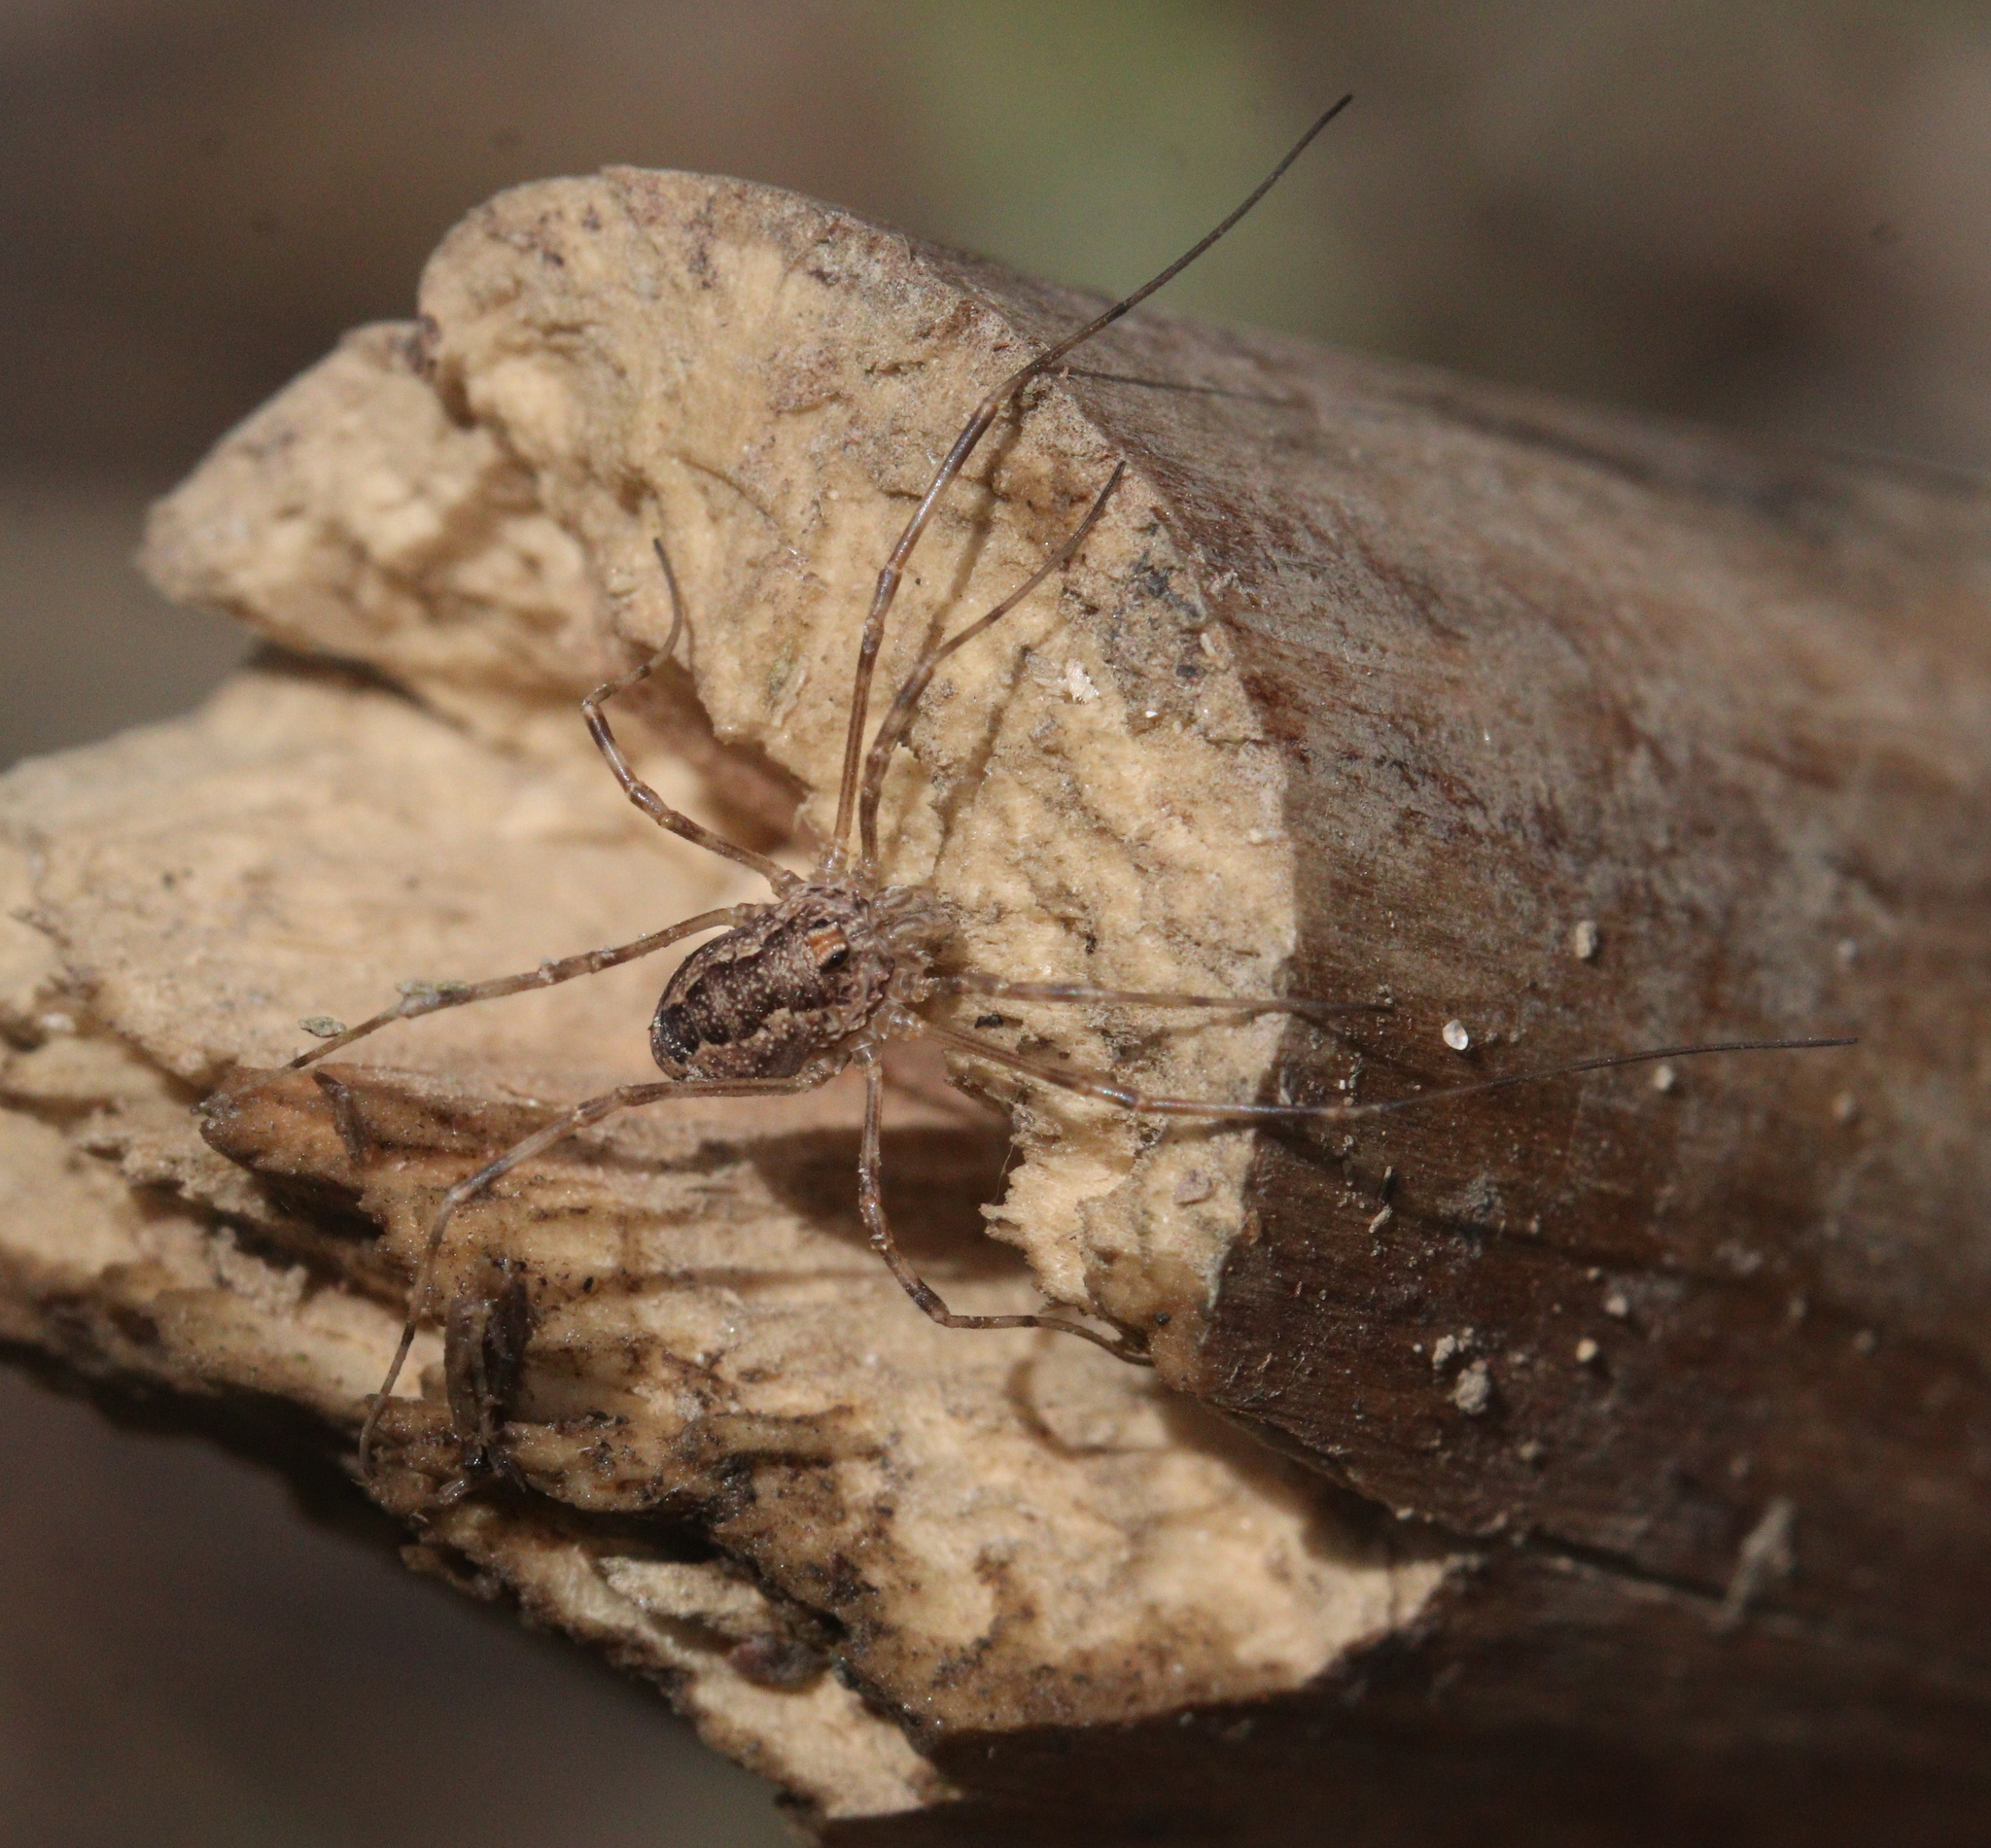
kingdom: Animalia
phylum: Arthropoda
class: Arachnida
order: Opiliones
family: Phalangiidae
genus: Rilaena
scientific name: Rilaena triangularis
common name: Spring harvestman
